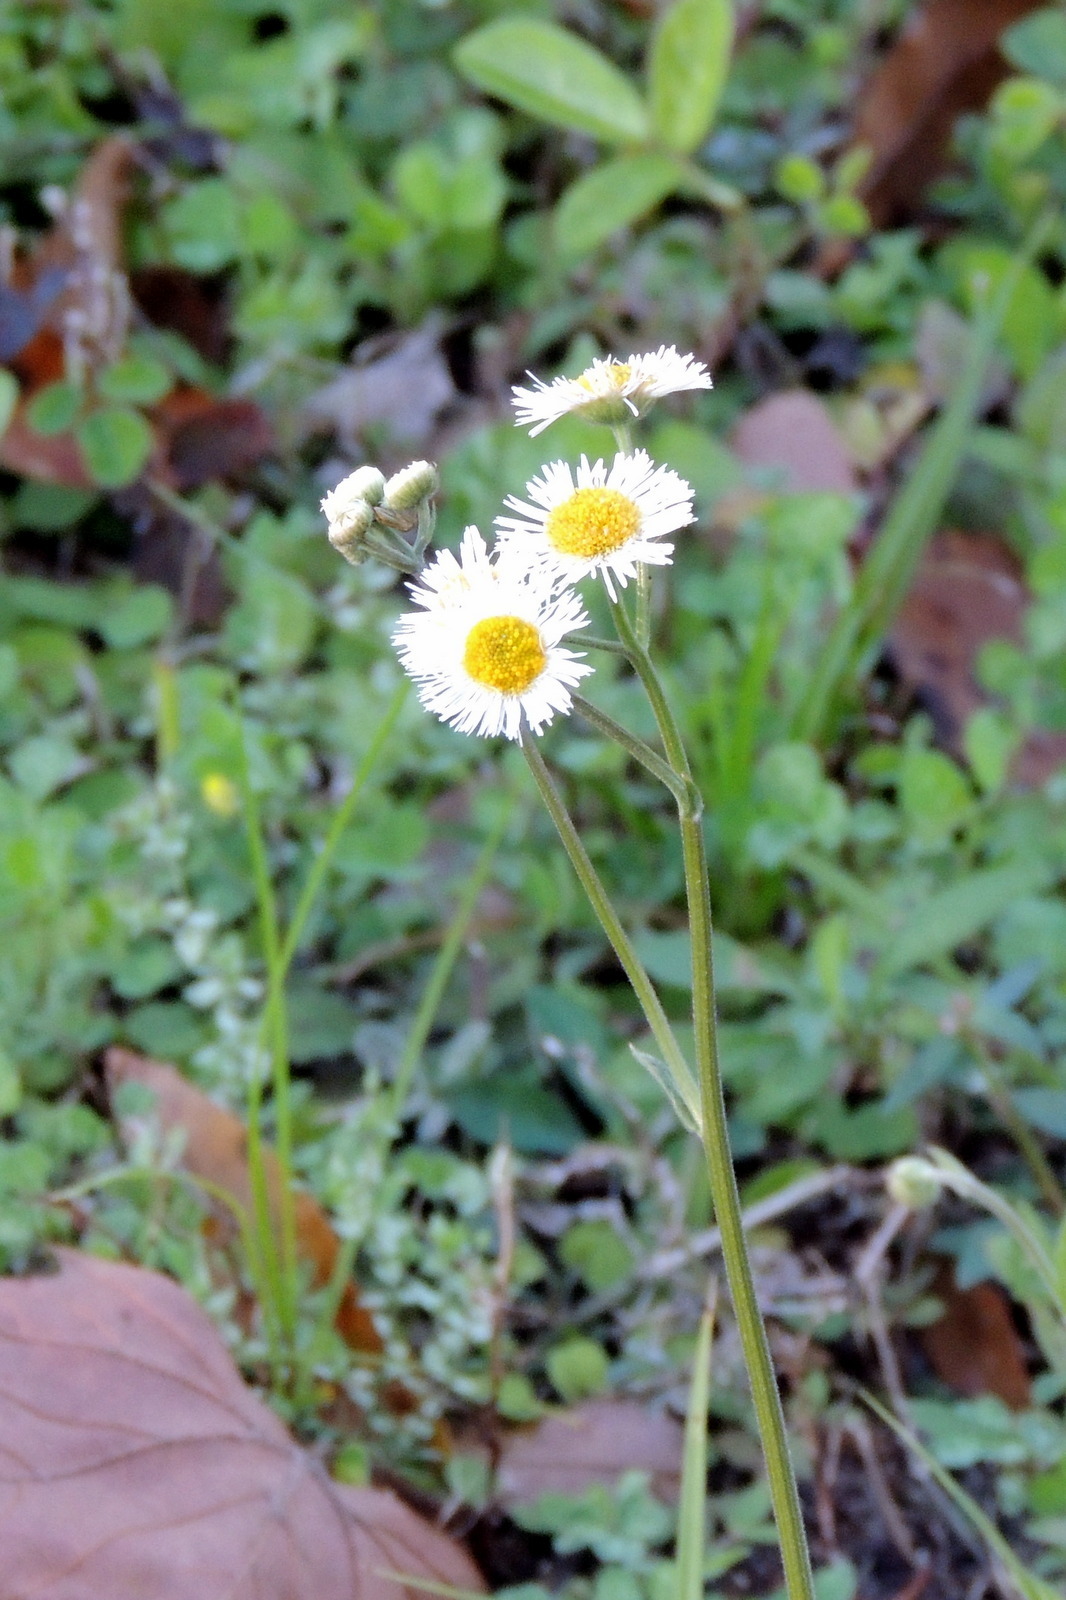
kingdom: Plantae
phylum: Tracheophyta
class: Magnoliopsida
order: Asterales
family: Asteraceae
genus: Erigeron
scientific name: Erigeron quercifolius
